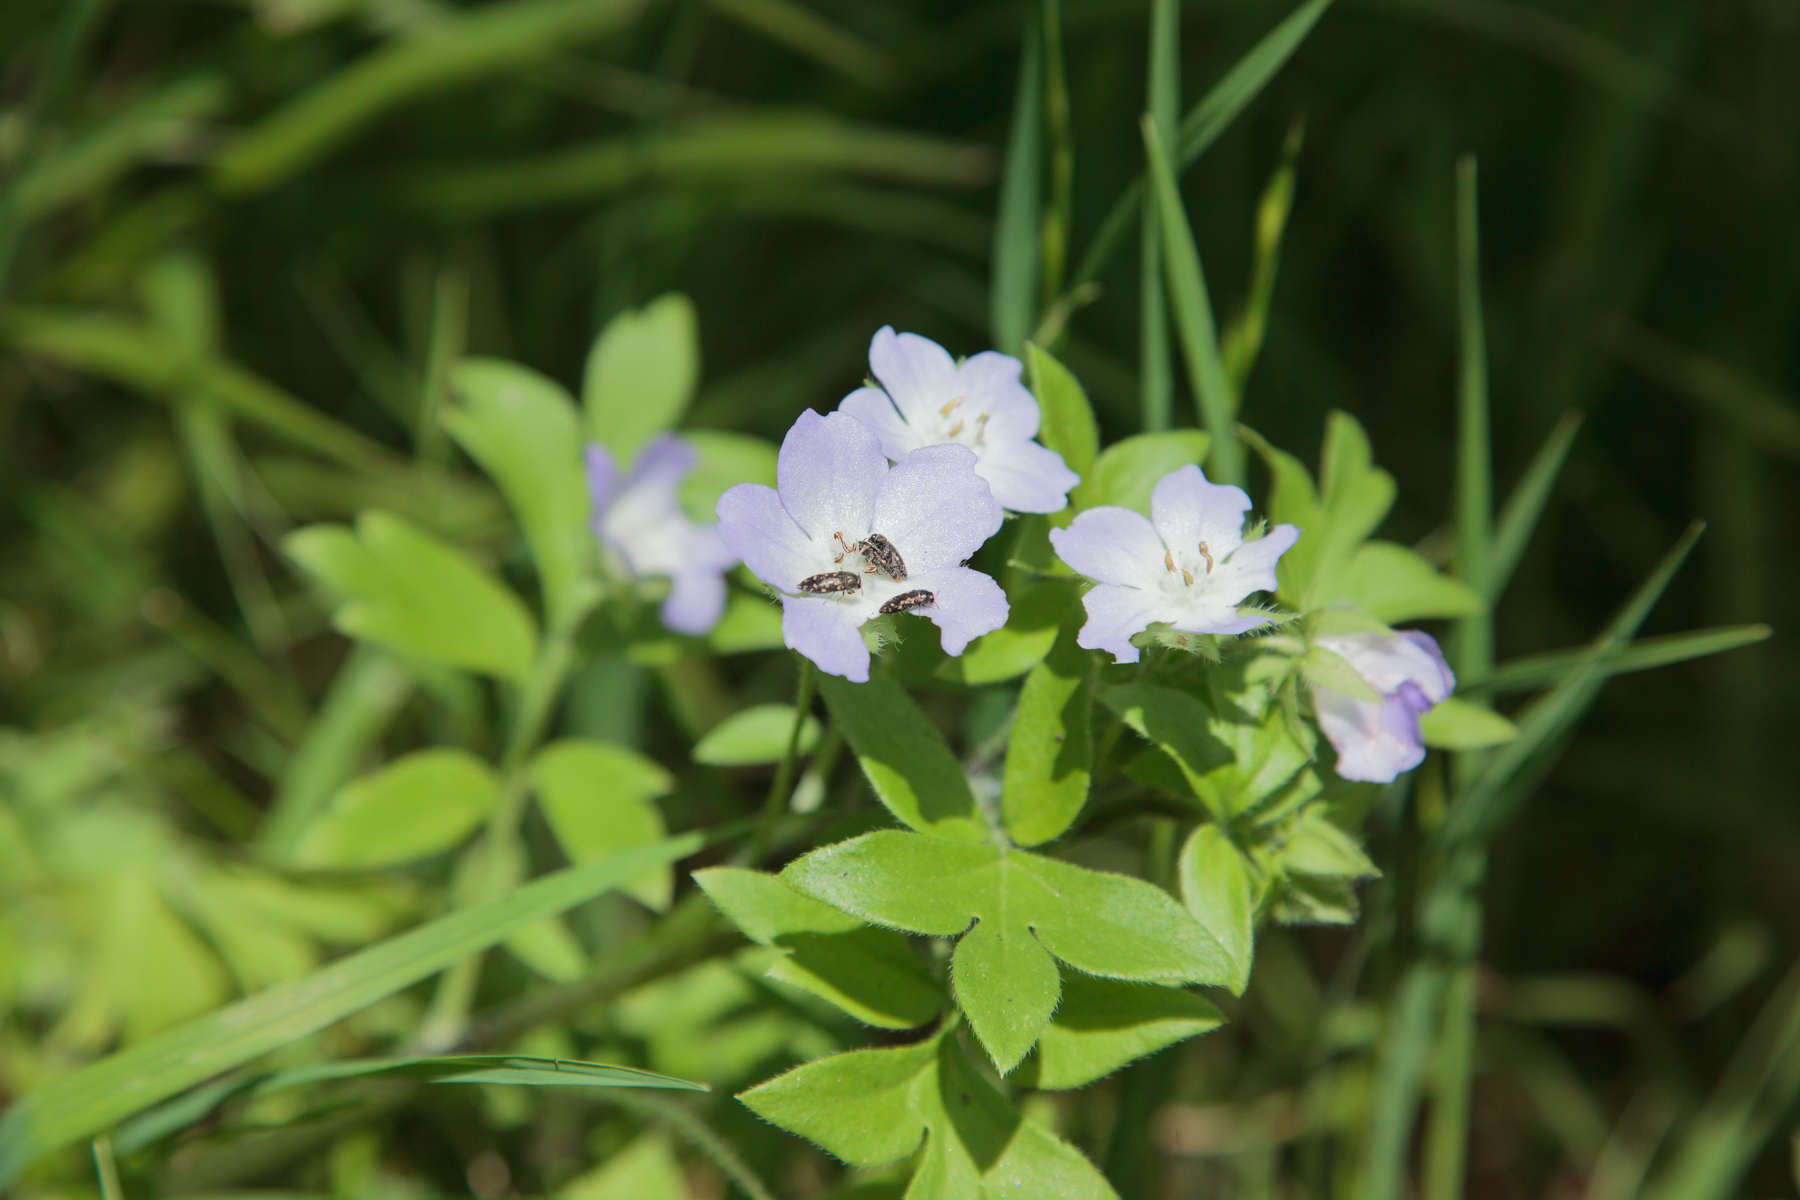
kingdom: Plantae
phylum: Tracheophyta
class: Magnoliopsida
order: Boraginales
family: Hydrophyllaceae
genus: Nemophila
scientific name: Nemophila phacelioides
